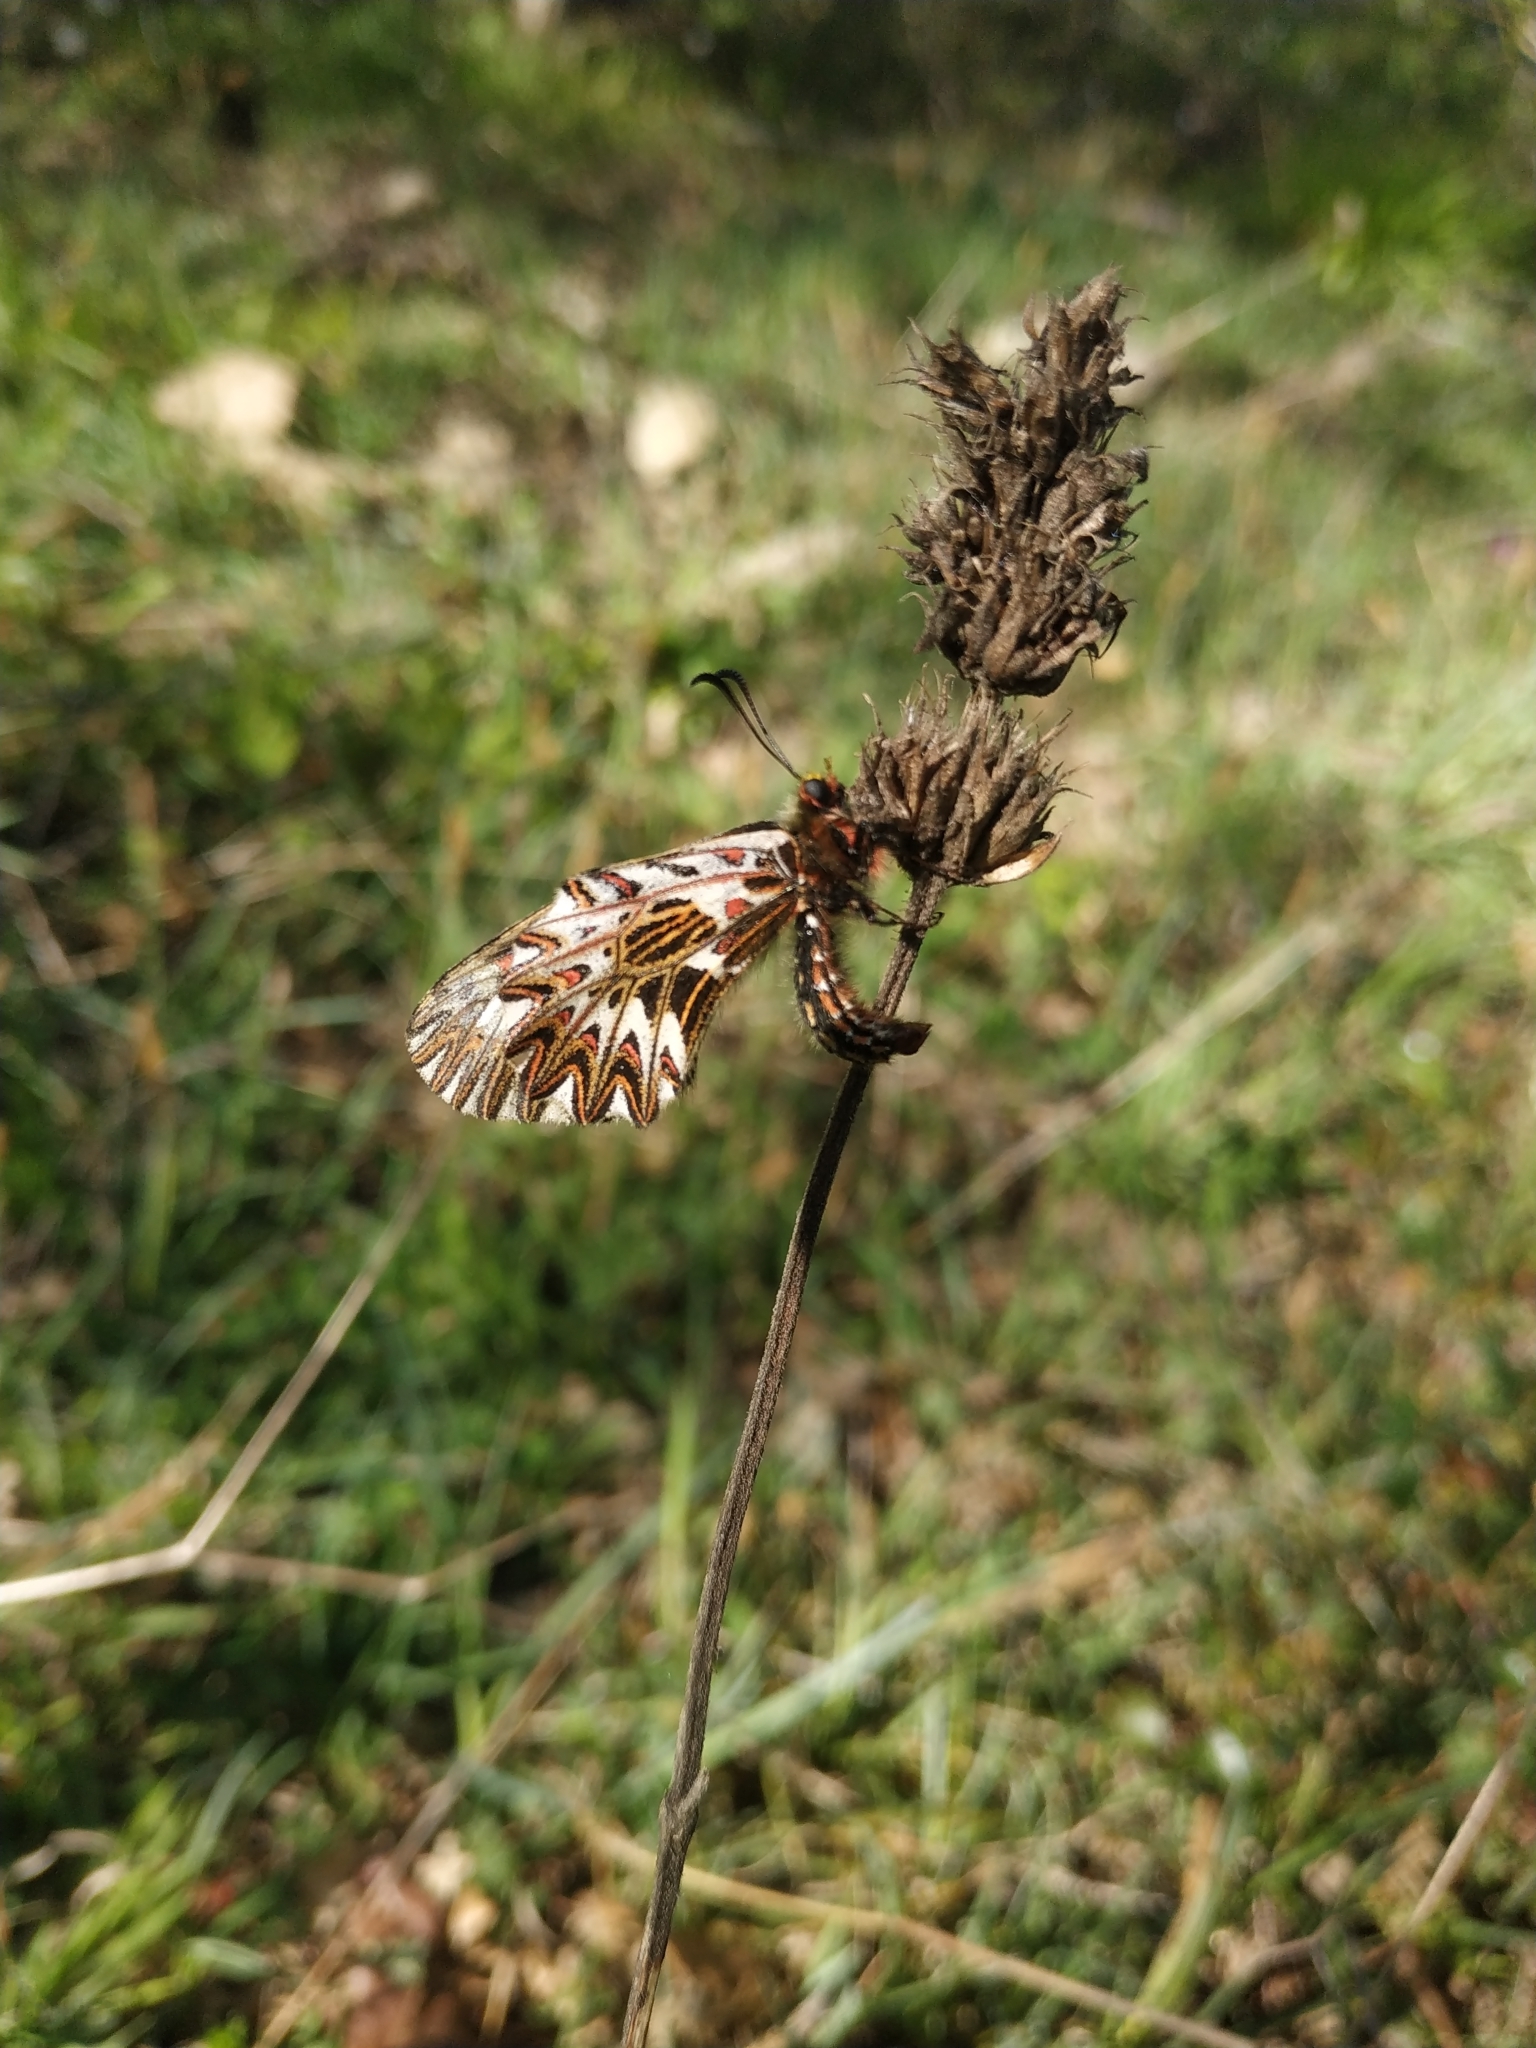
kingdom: Animalia
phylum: Arthropoda
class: Insecta
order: Lepidoptera
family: Papilionidae
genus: Zerynthia
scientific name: Zerynthia cassandra
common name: Italian festoon
